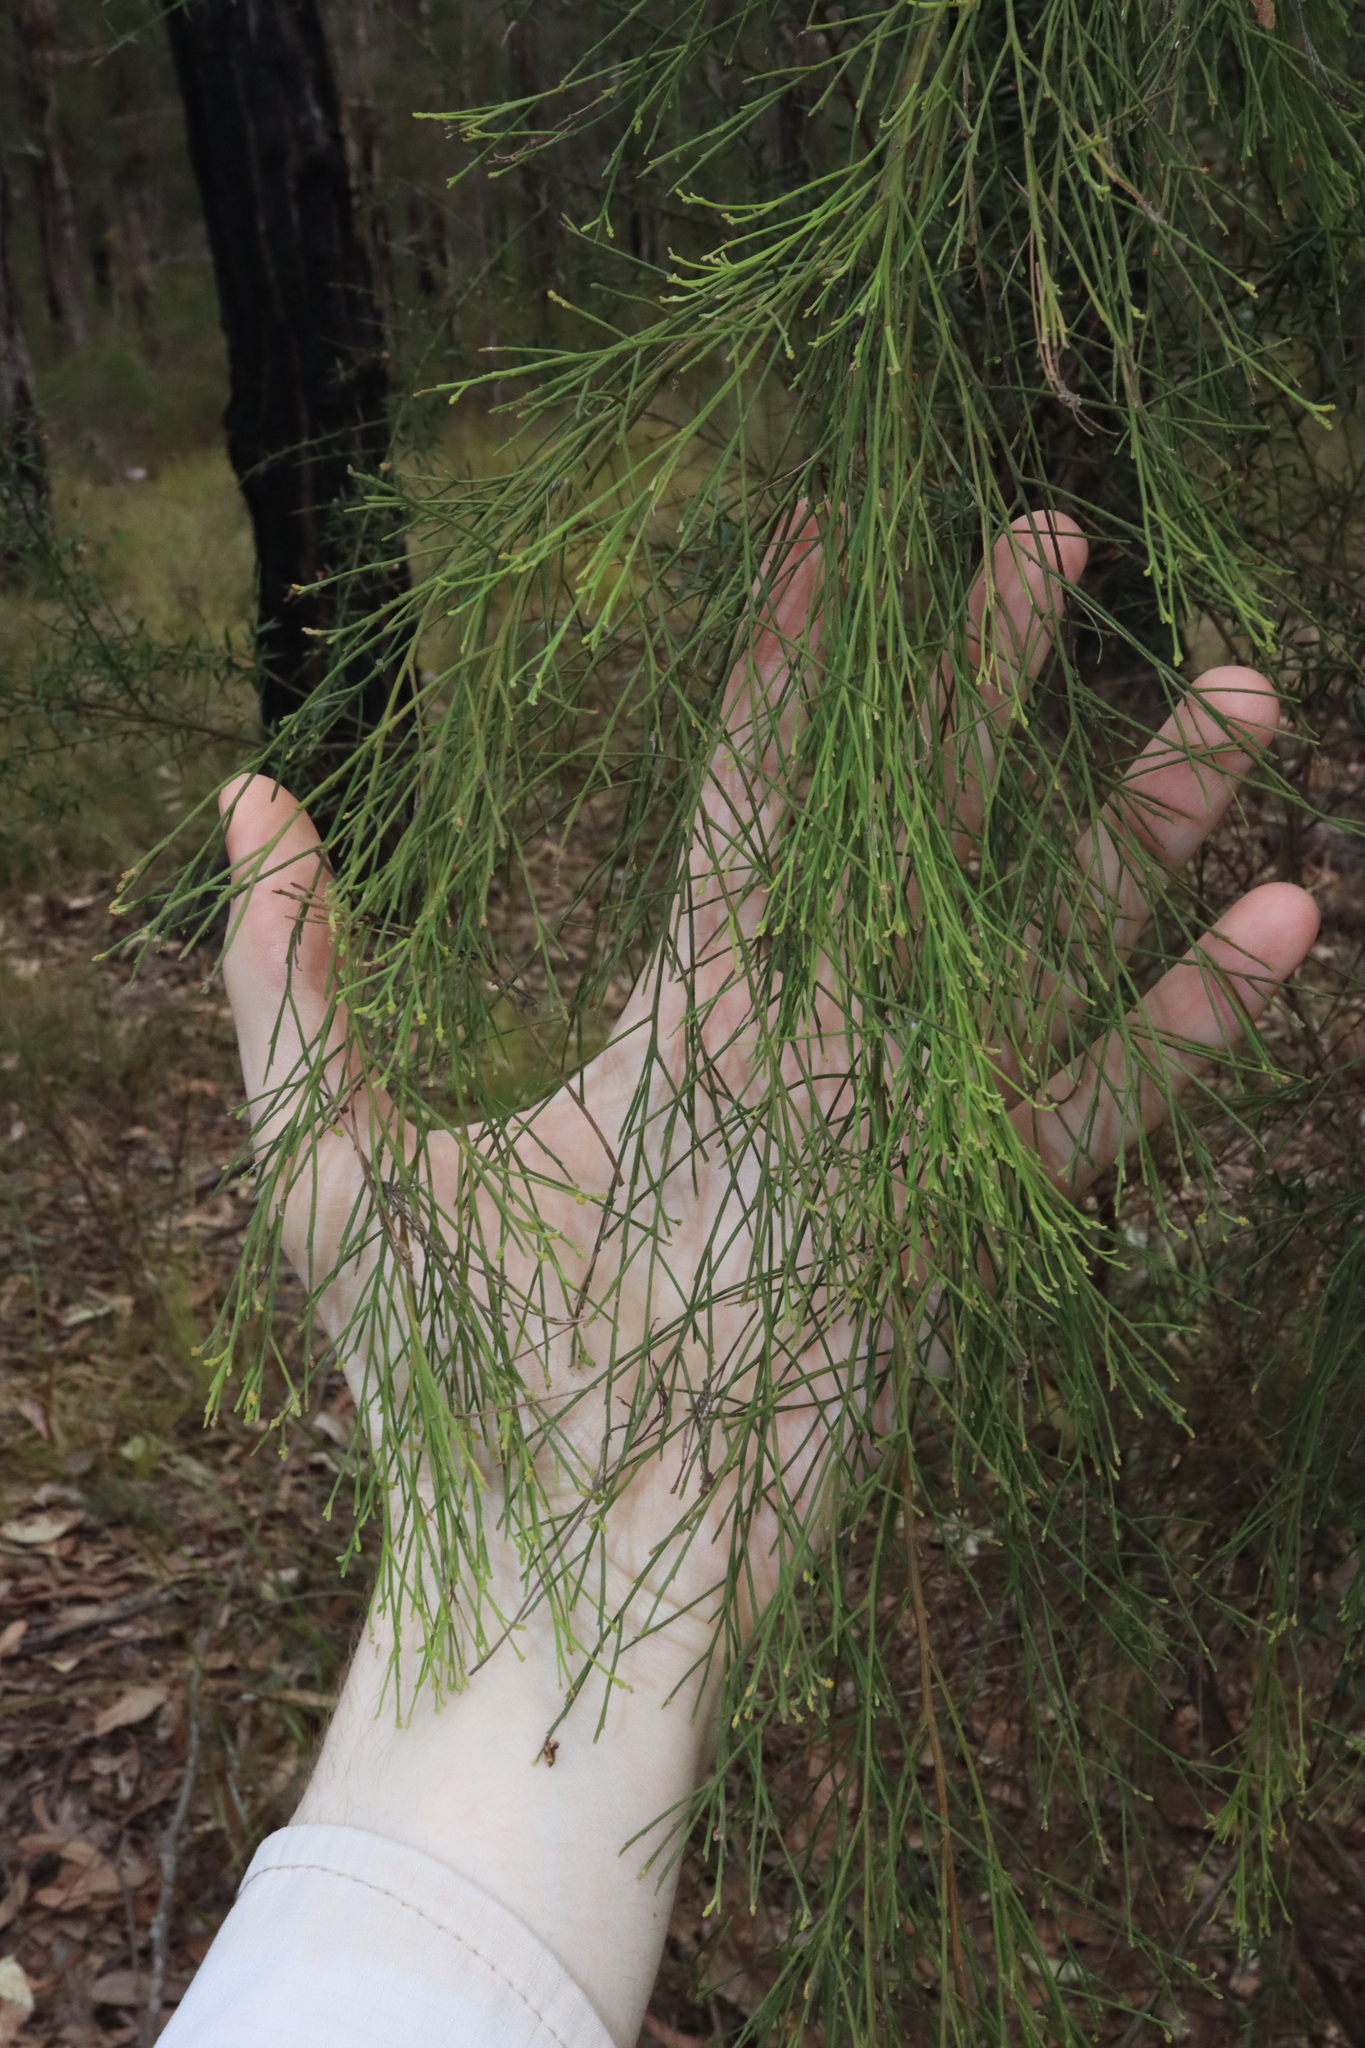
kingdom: Plantae
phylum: Tracheophyta
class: Magnoliopsida
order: Santalales
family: Santalaceae
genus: Exocarpos
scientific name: Exocarpos cupressiformis
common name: Cherry ballart
